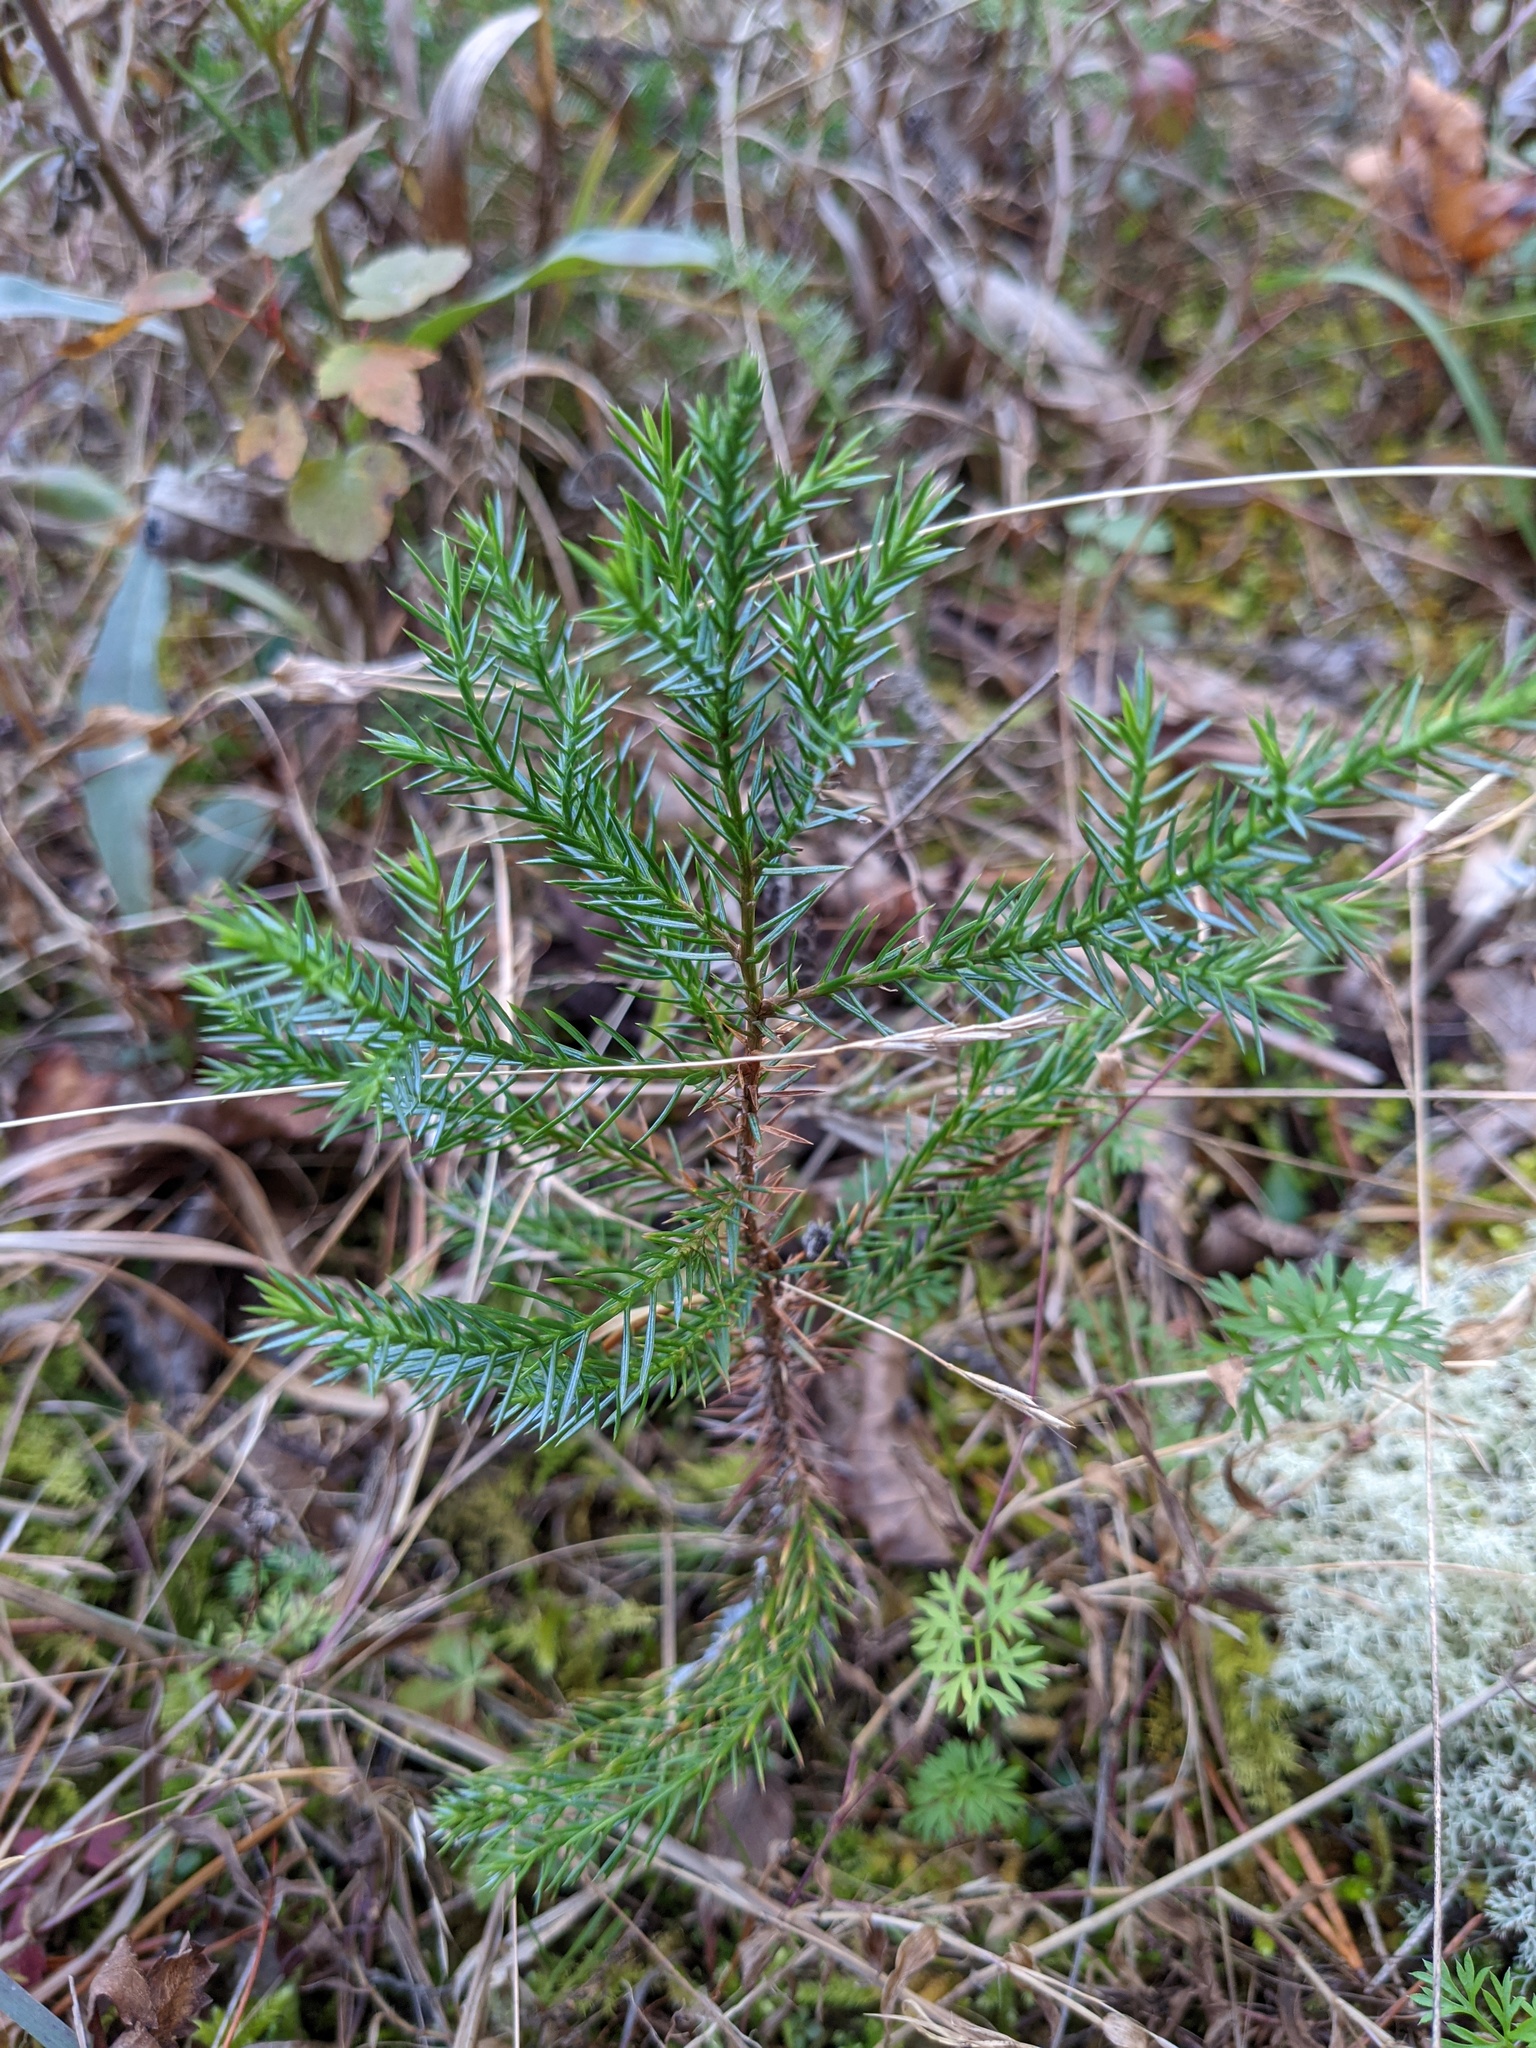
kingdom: Plantae
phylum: Tracheophyta
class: Pinopsida
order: Pinales
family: Cupressaceae
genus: Juniperus
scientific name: Juniperus virginiana
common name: Red juniper
